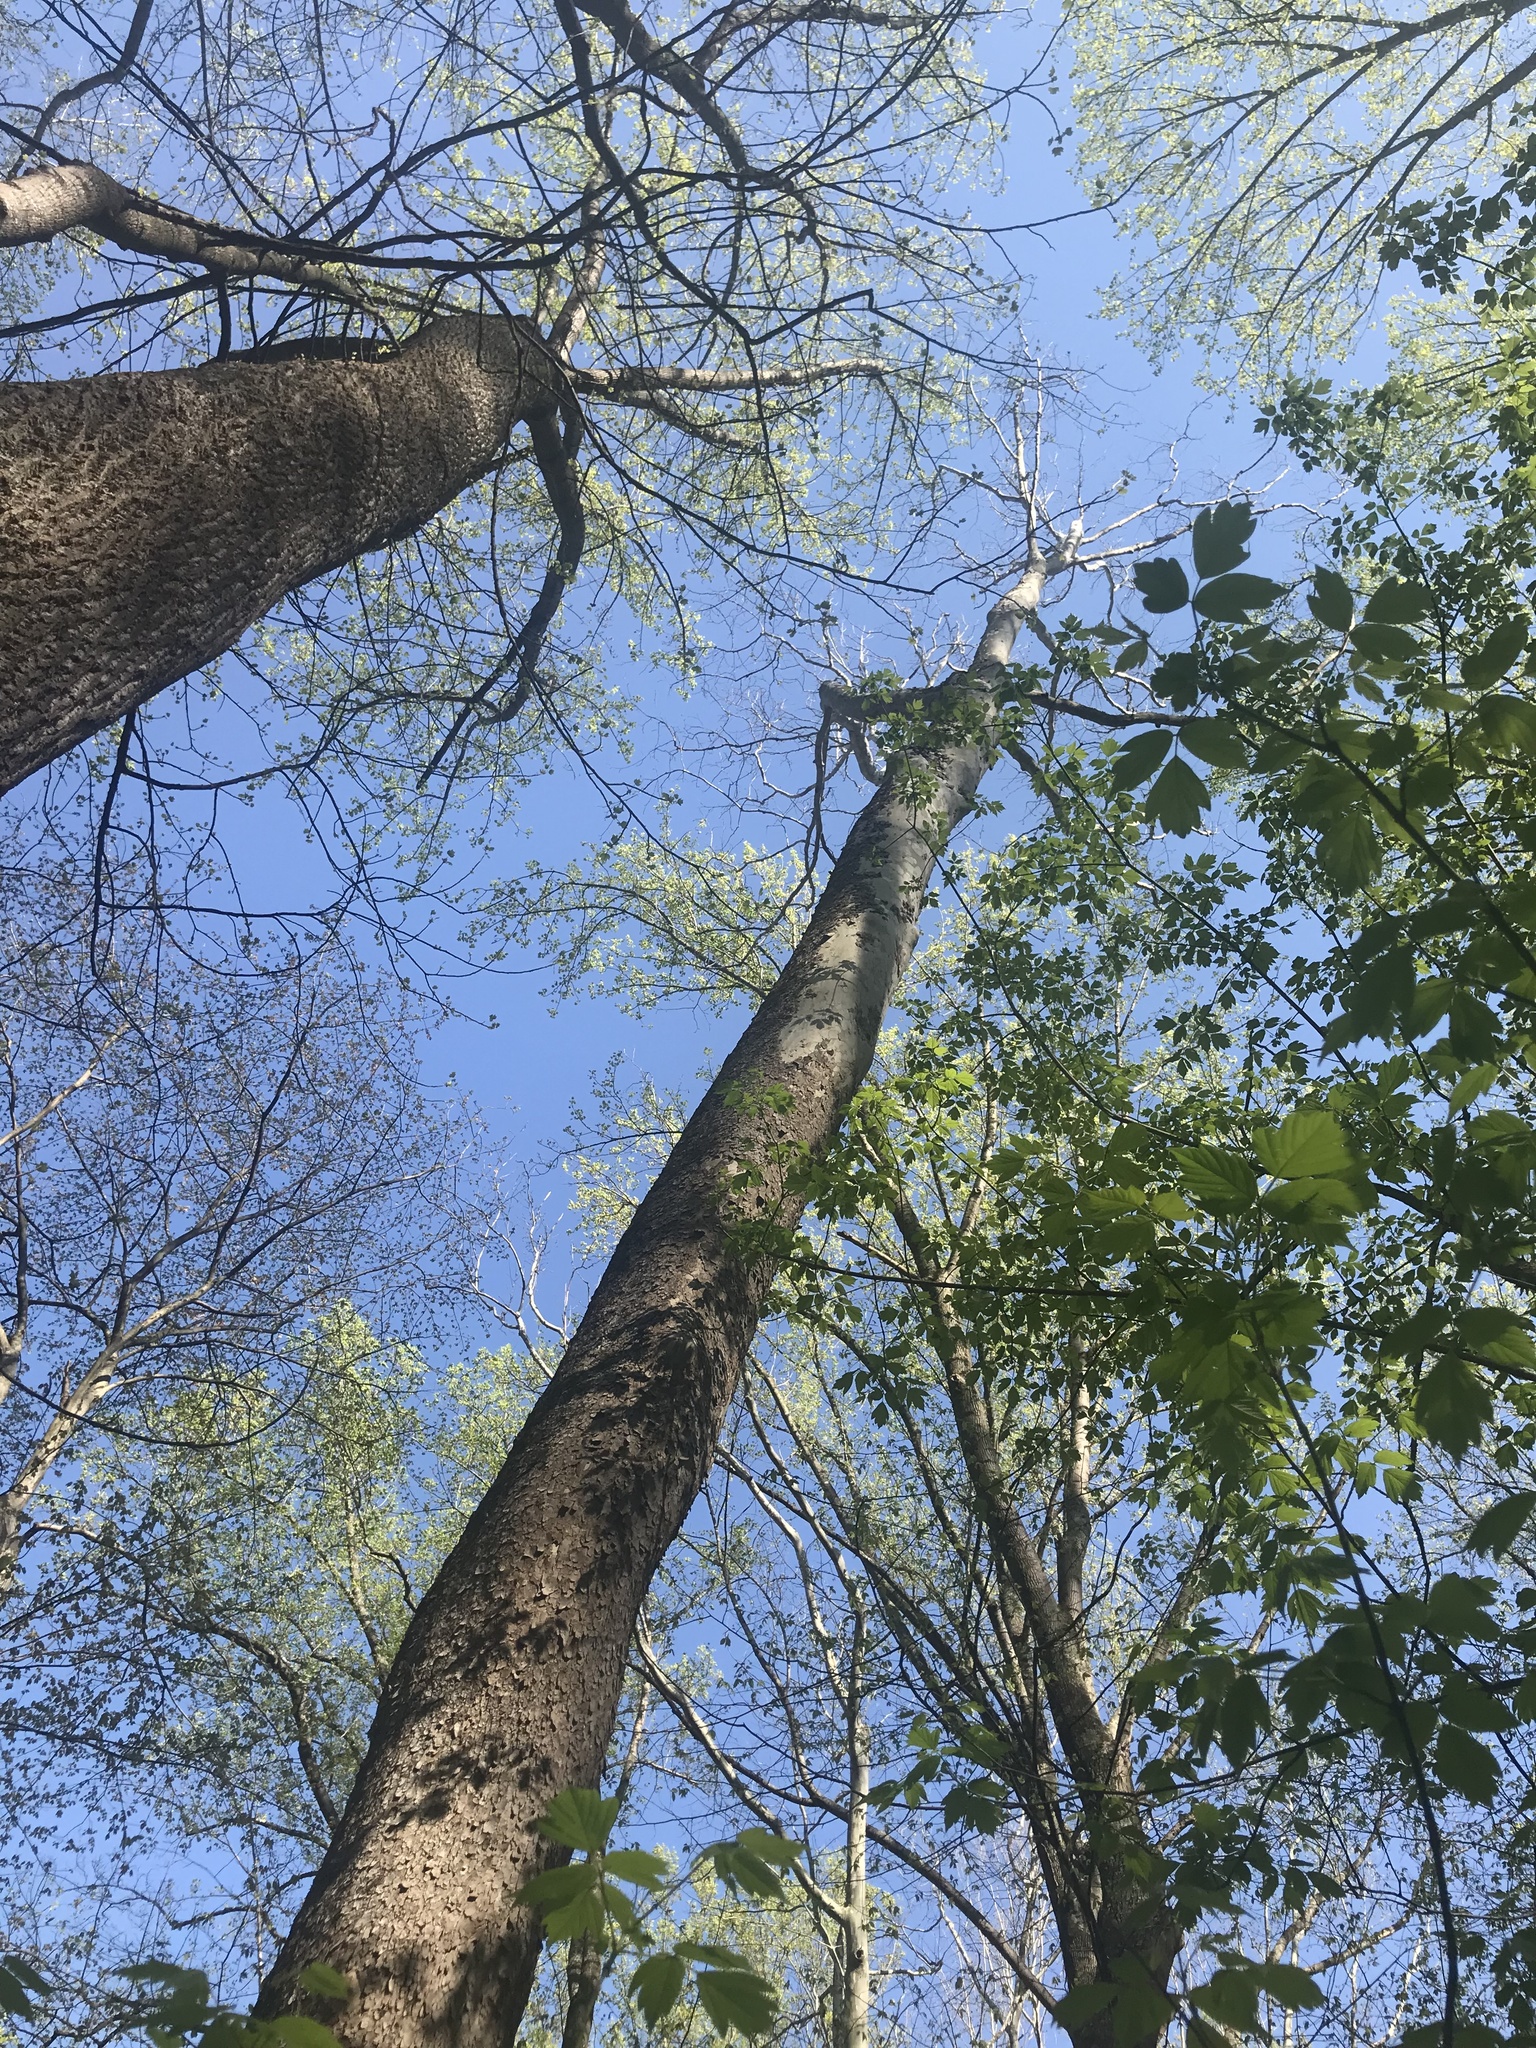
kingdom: Plantae
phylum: Tracheophyta
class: Magnoliopsida
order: Proteales
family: Platanaceae
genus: Platanus
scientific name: Platanus occidentalis
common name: American sycamore
